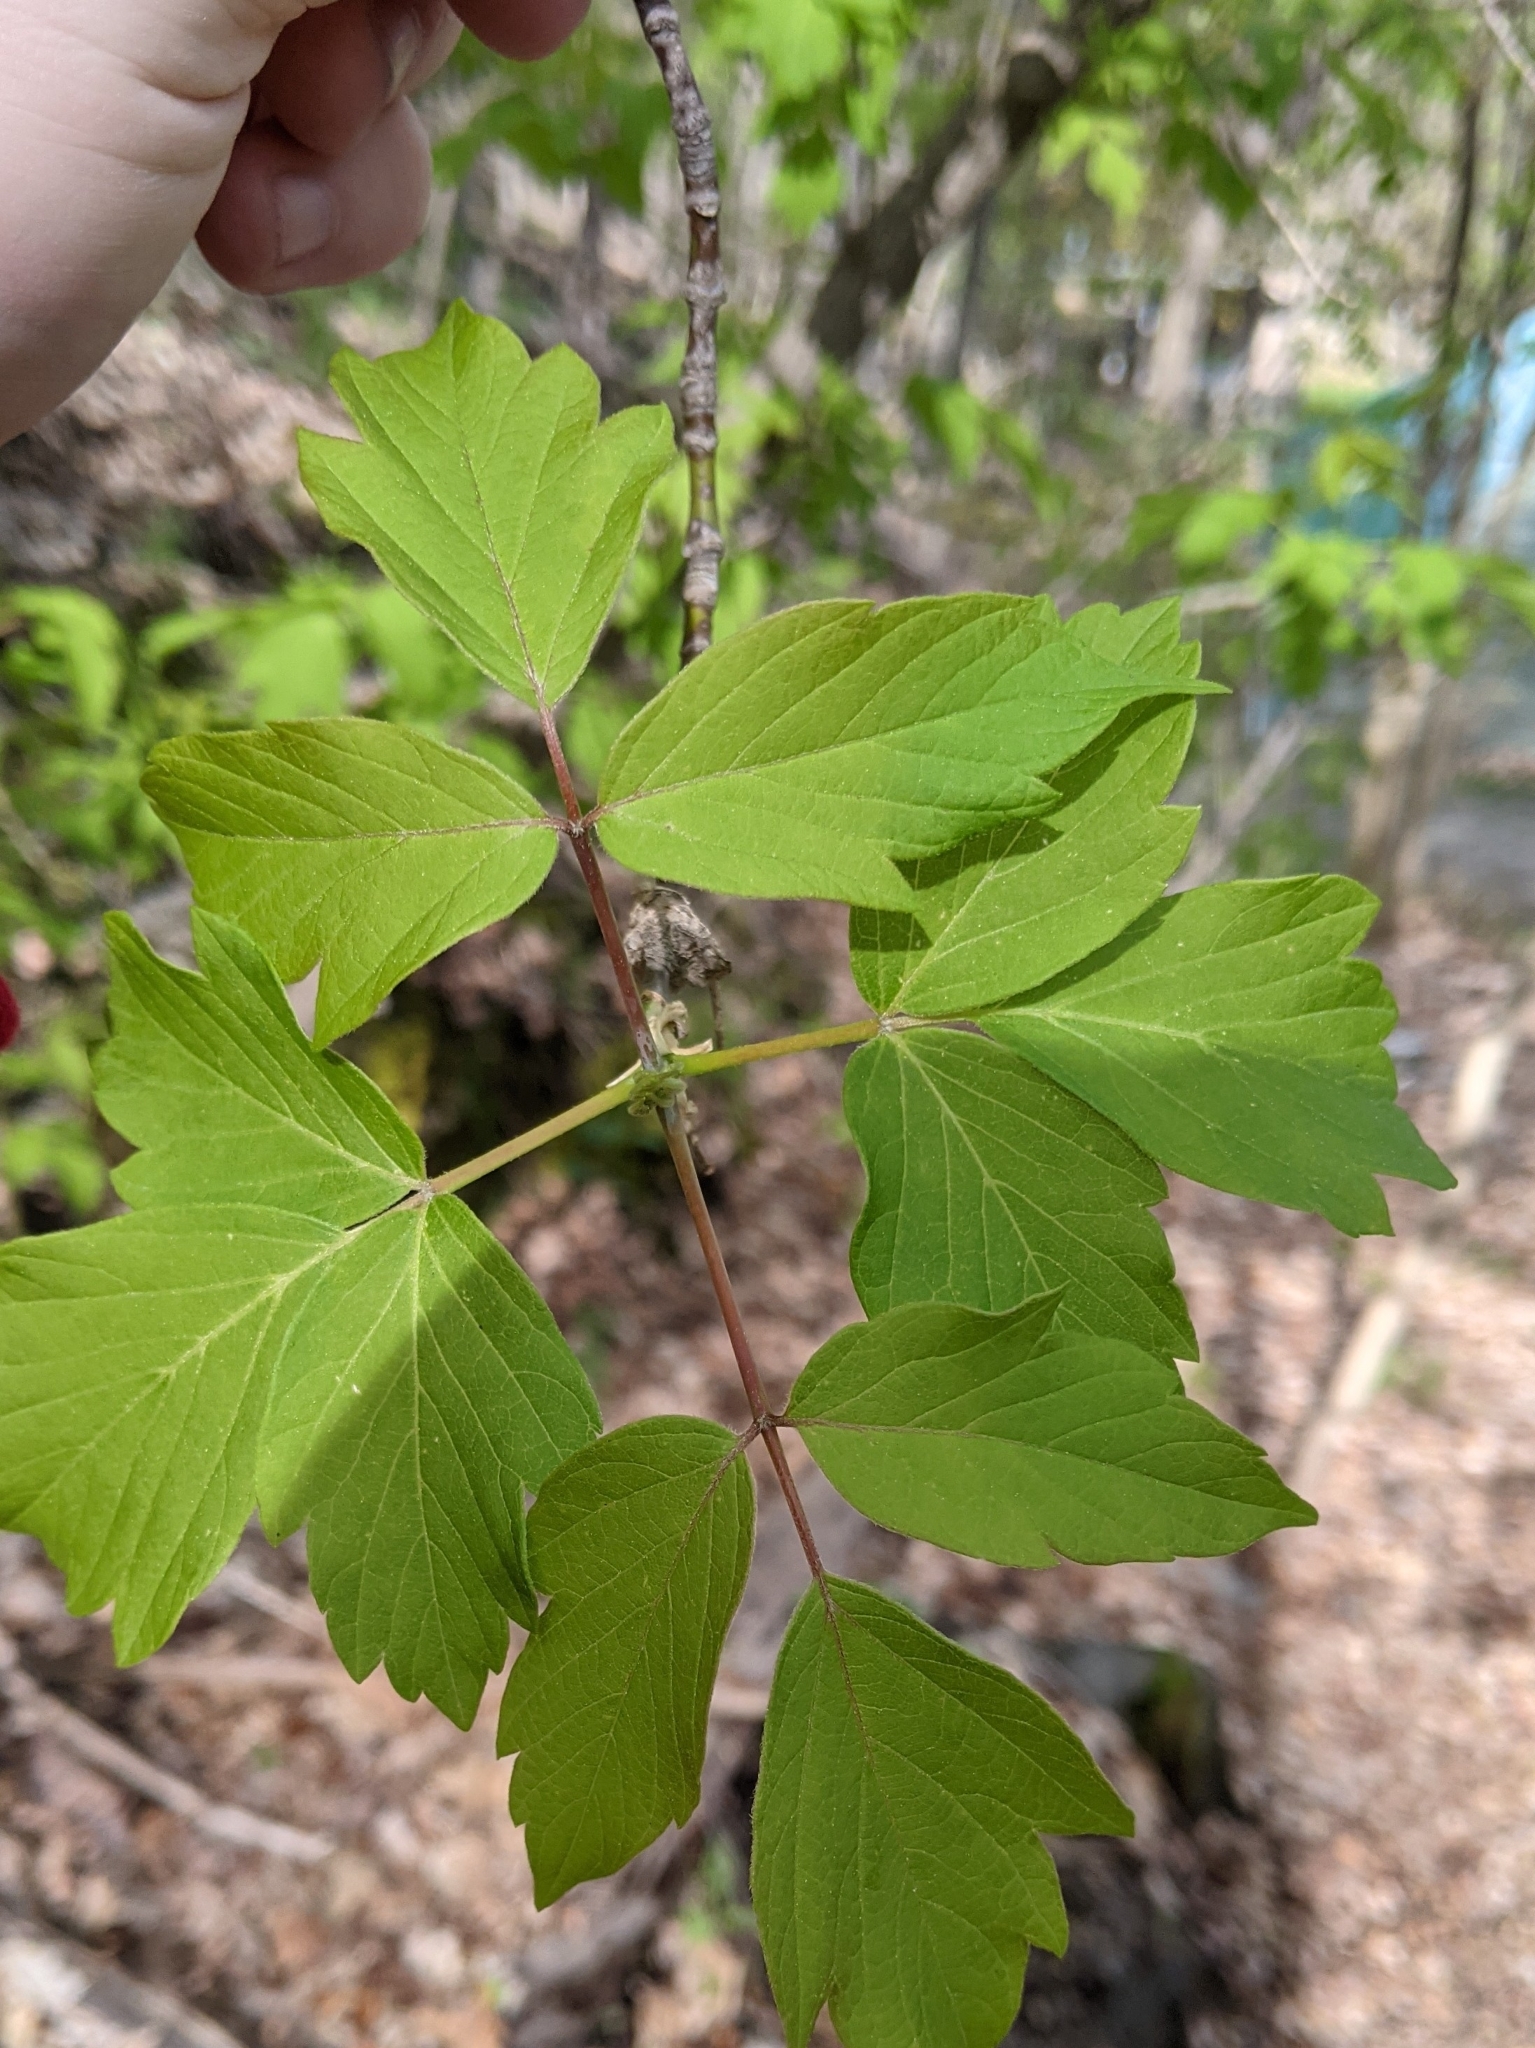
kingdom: Plantae
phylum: Tracheophyta
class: Magnoliopsida
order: Sapindales
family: Sapindaceae
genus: Acer
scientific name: Acer negundo
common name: Ashleaf maple
